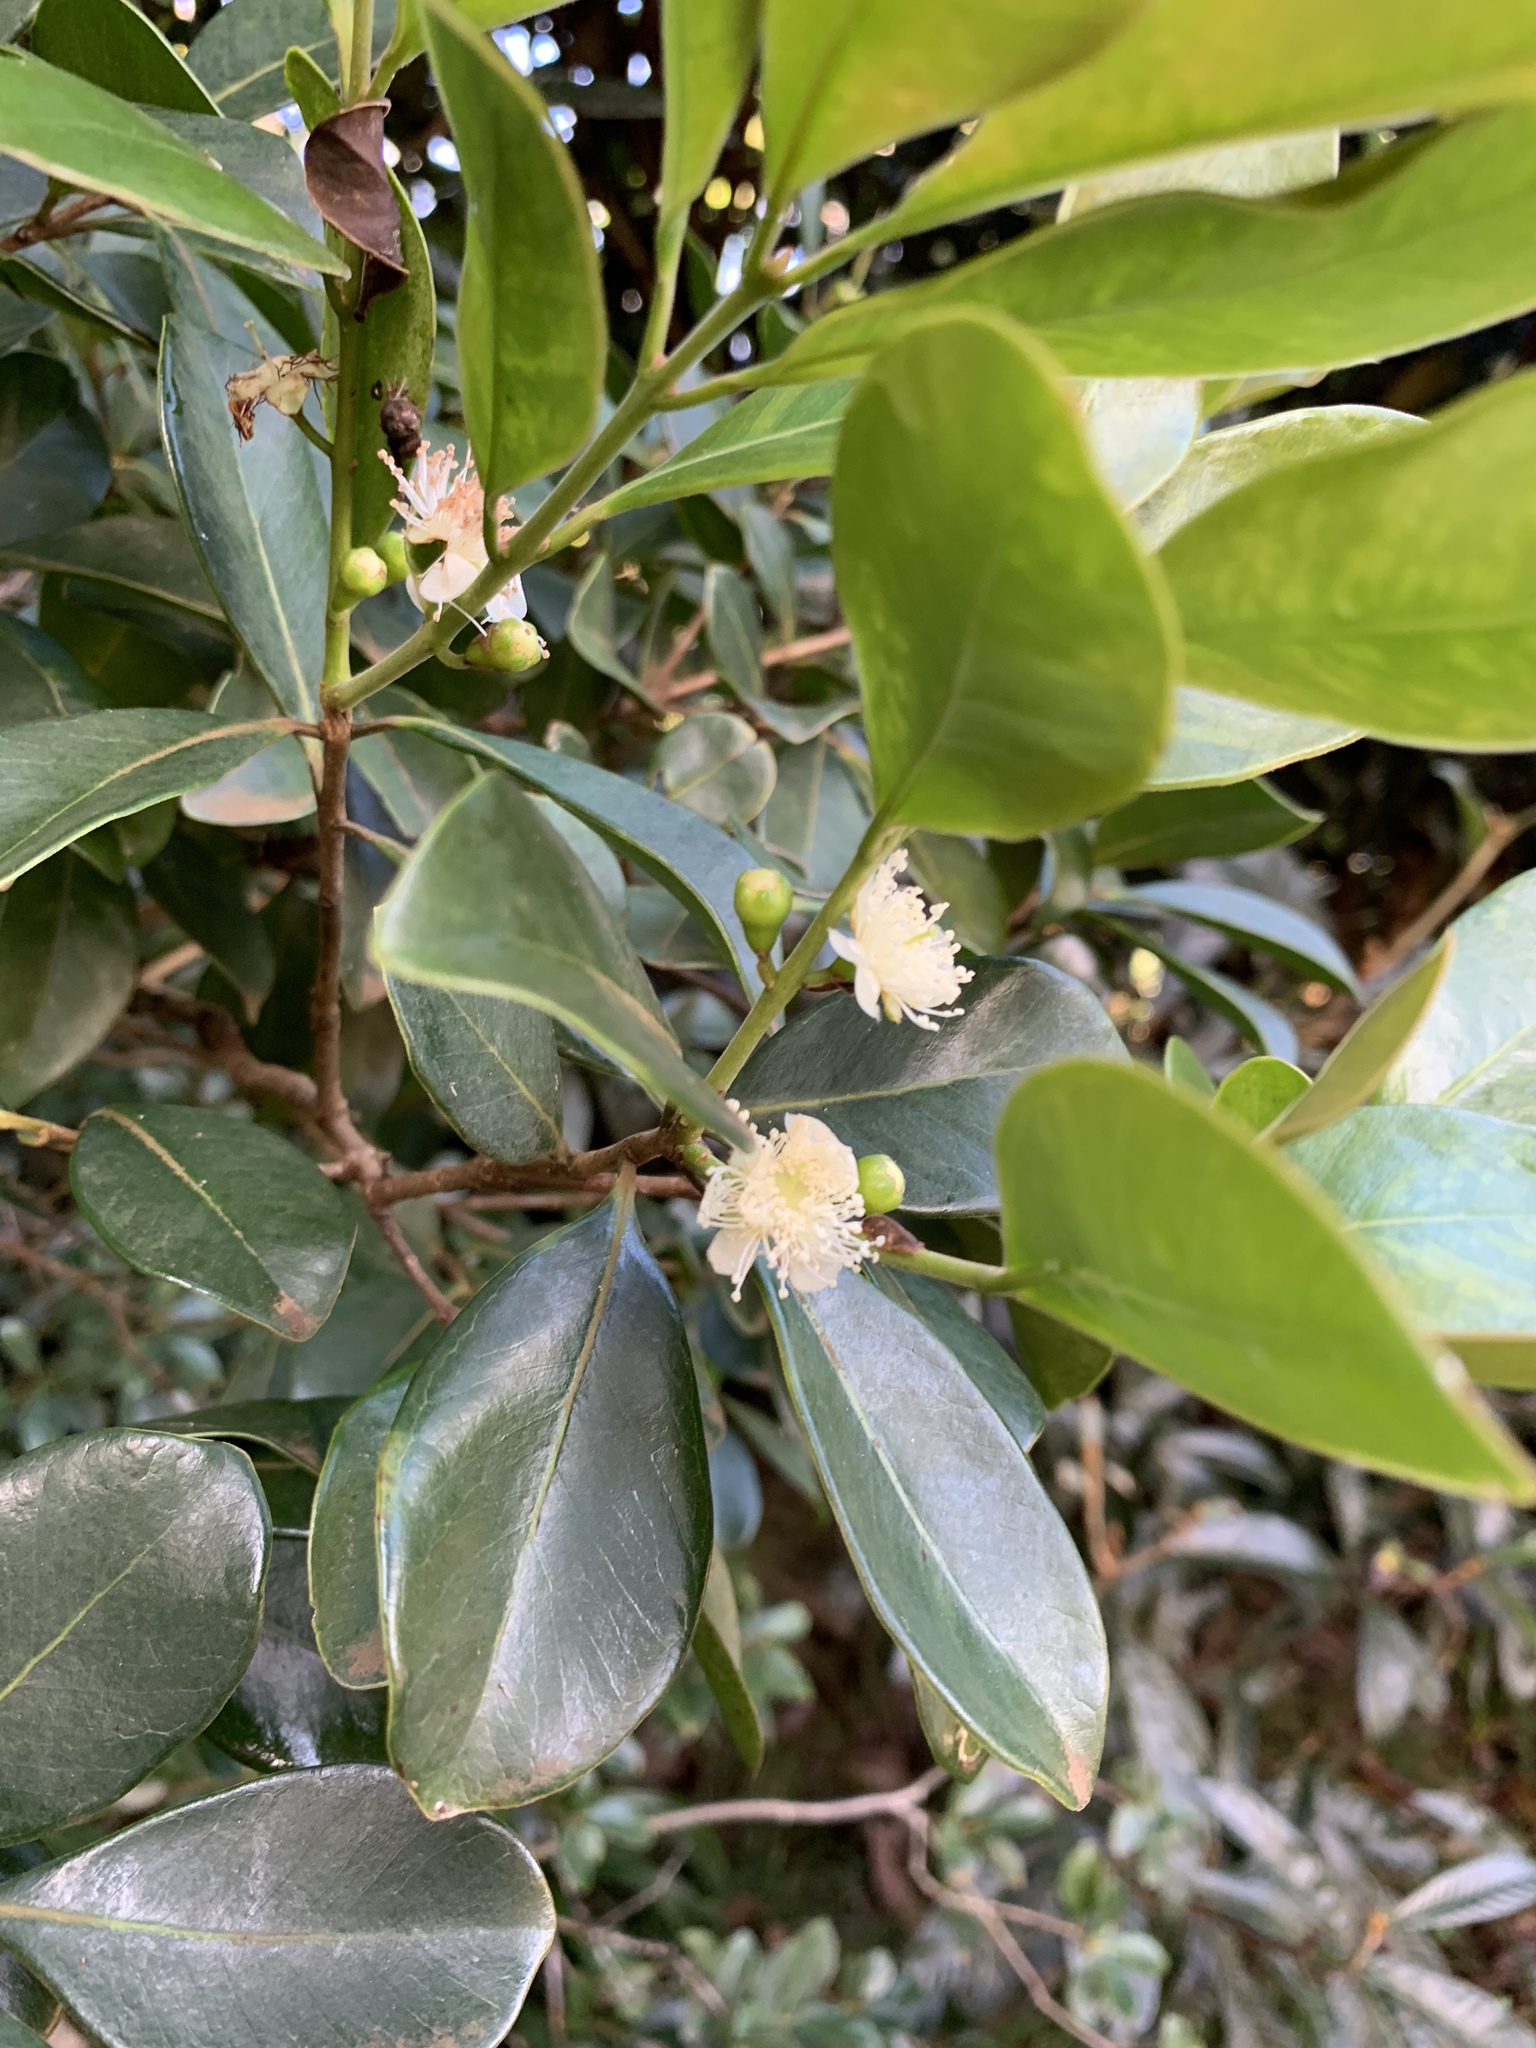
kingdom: Plantae
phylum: Tracheophyta
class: Magnoliopsida
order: Myrtales
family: Myrtaceae
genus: Psidium
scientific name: Psidium cattleianum
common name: Strawberry guava
